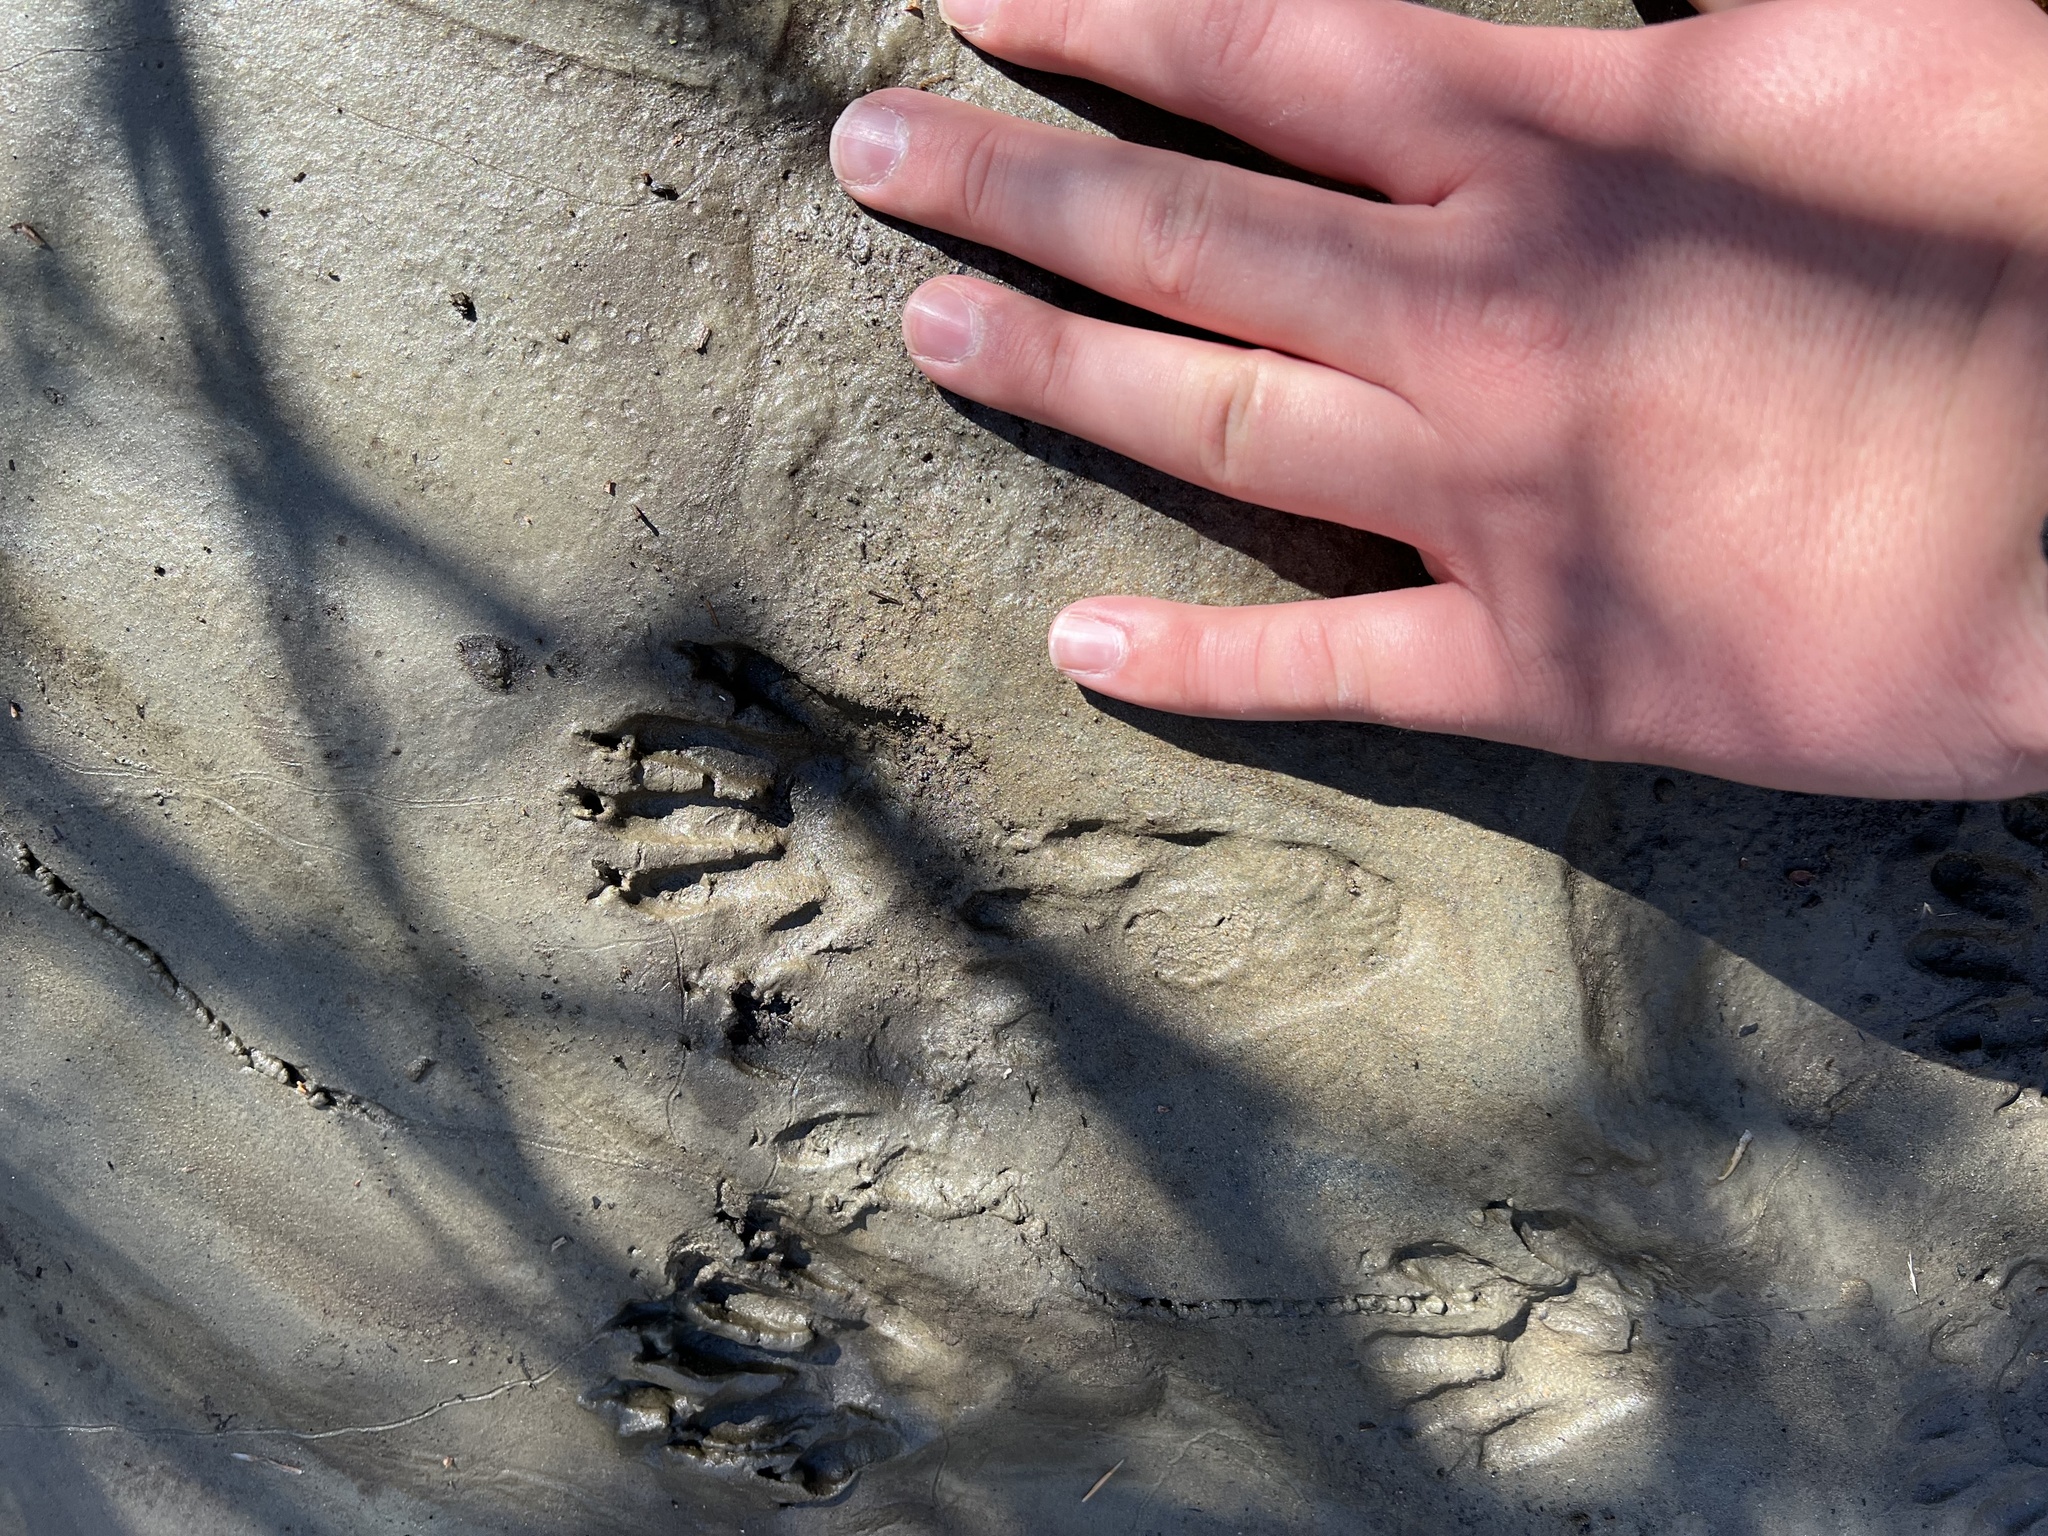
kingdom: Animalia
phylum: Chordata
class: Mammalia
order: Carnivora
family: Procyonidae
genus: Procyon
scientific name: Procyon lotor
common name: Raccoon
